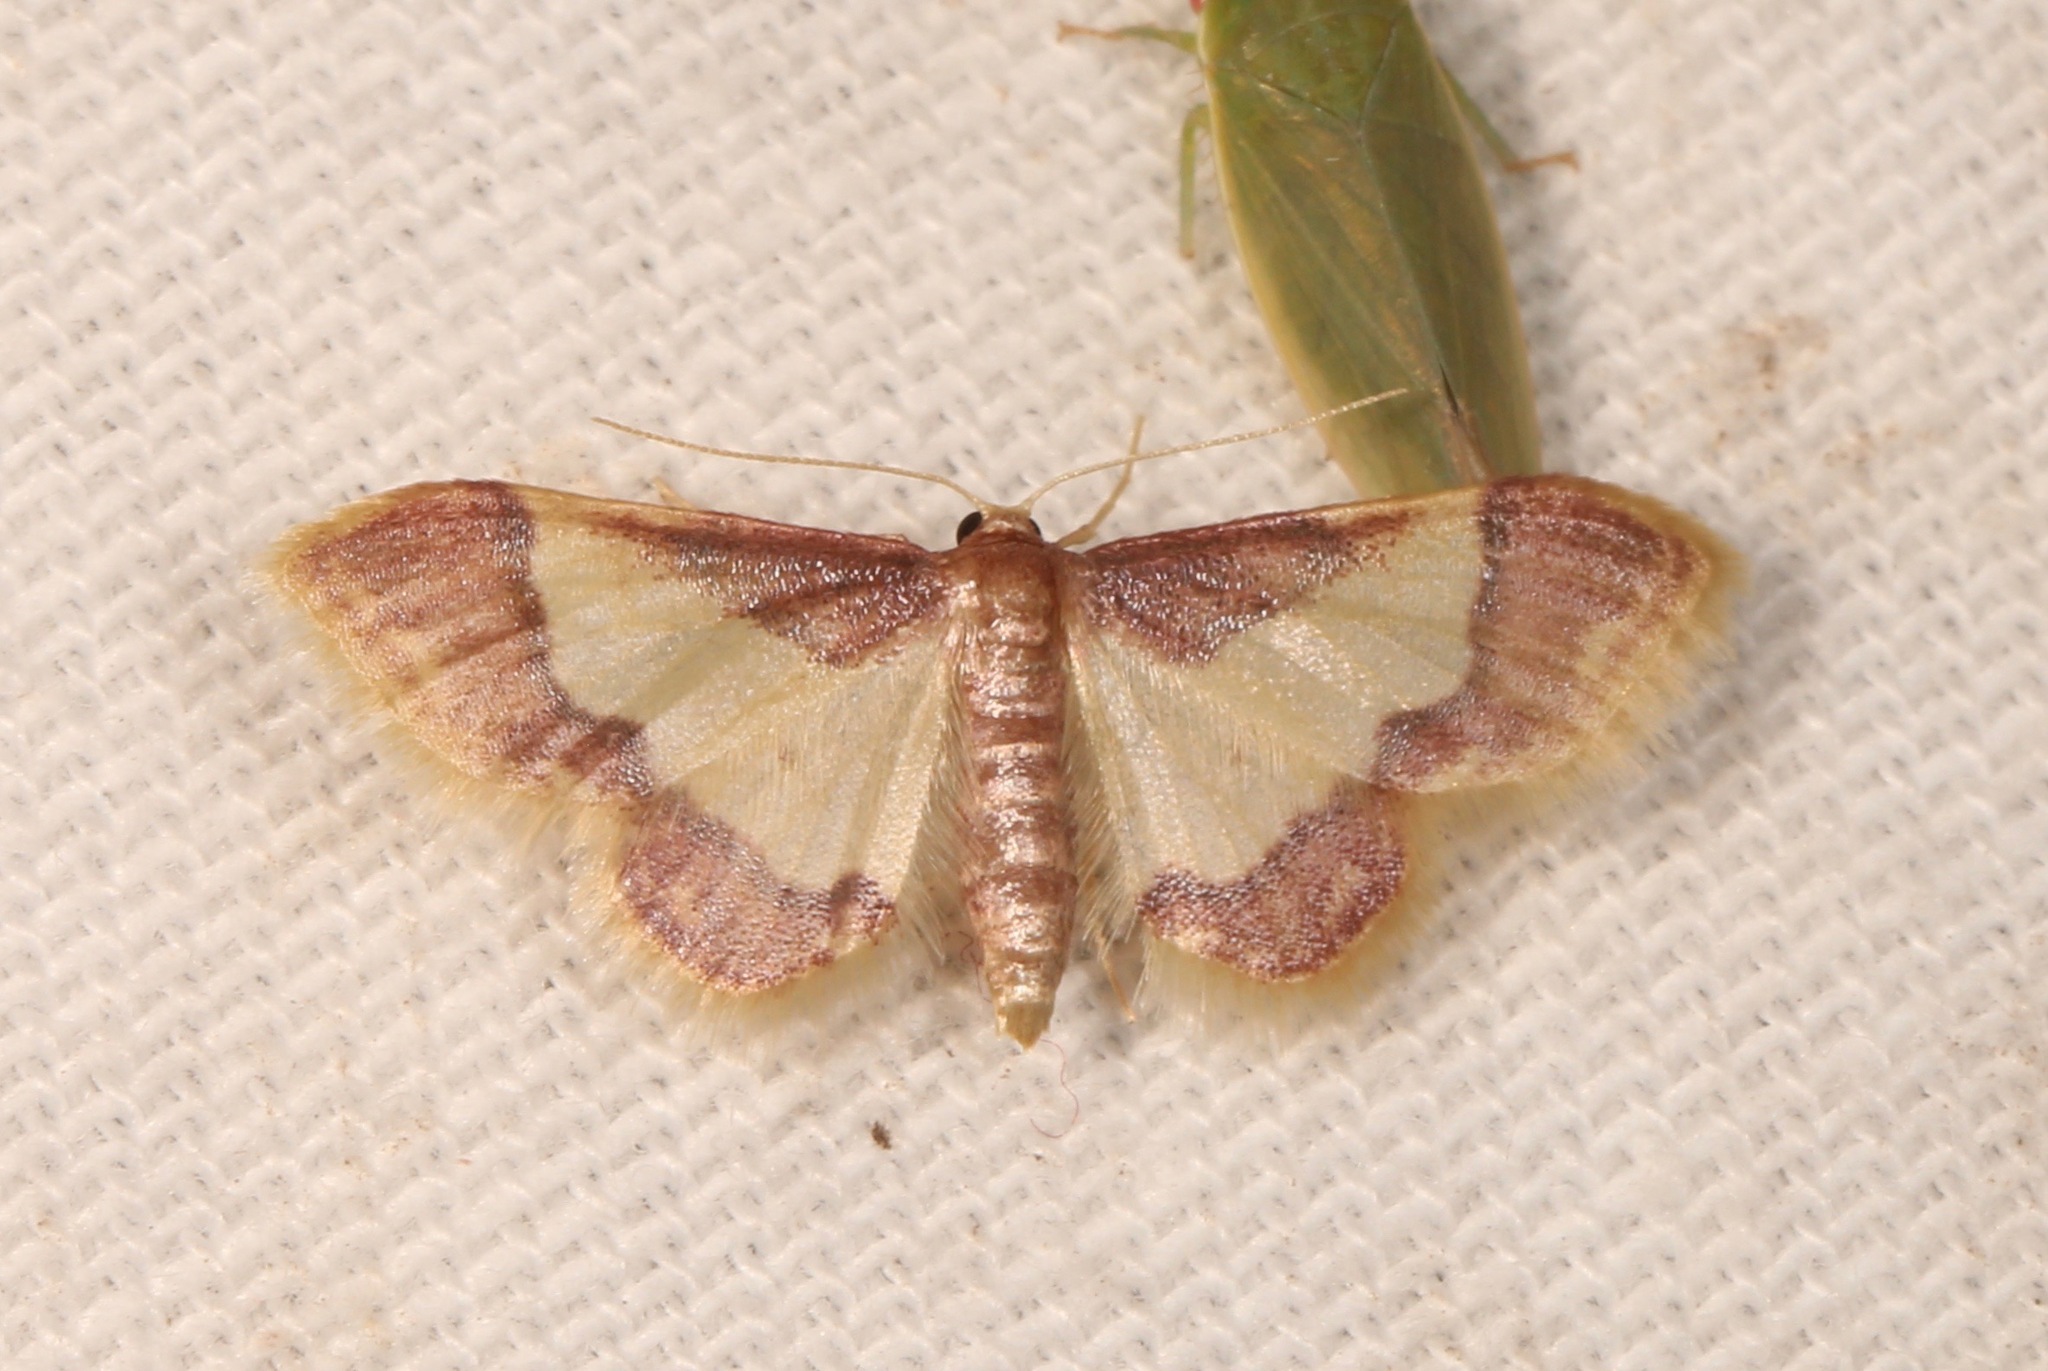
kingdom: Animalia
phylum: Arthropoda
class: Insecta
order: Lepidoptera
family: Geometridae
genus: Idaea
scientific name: Idaea basinta
